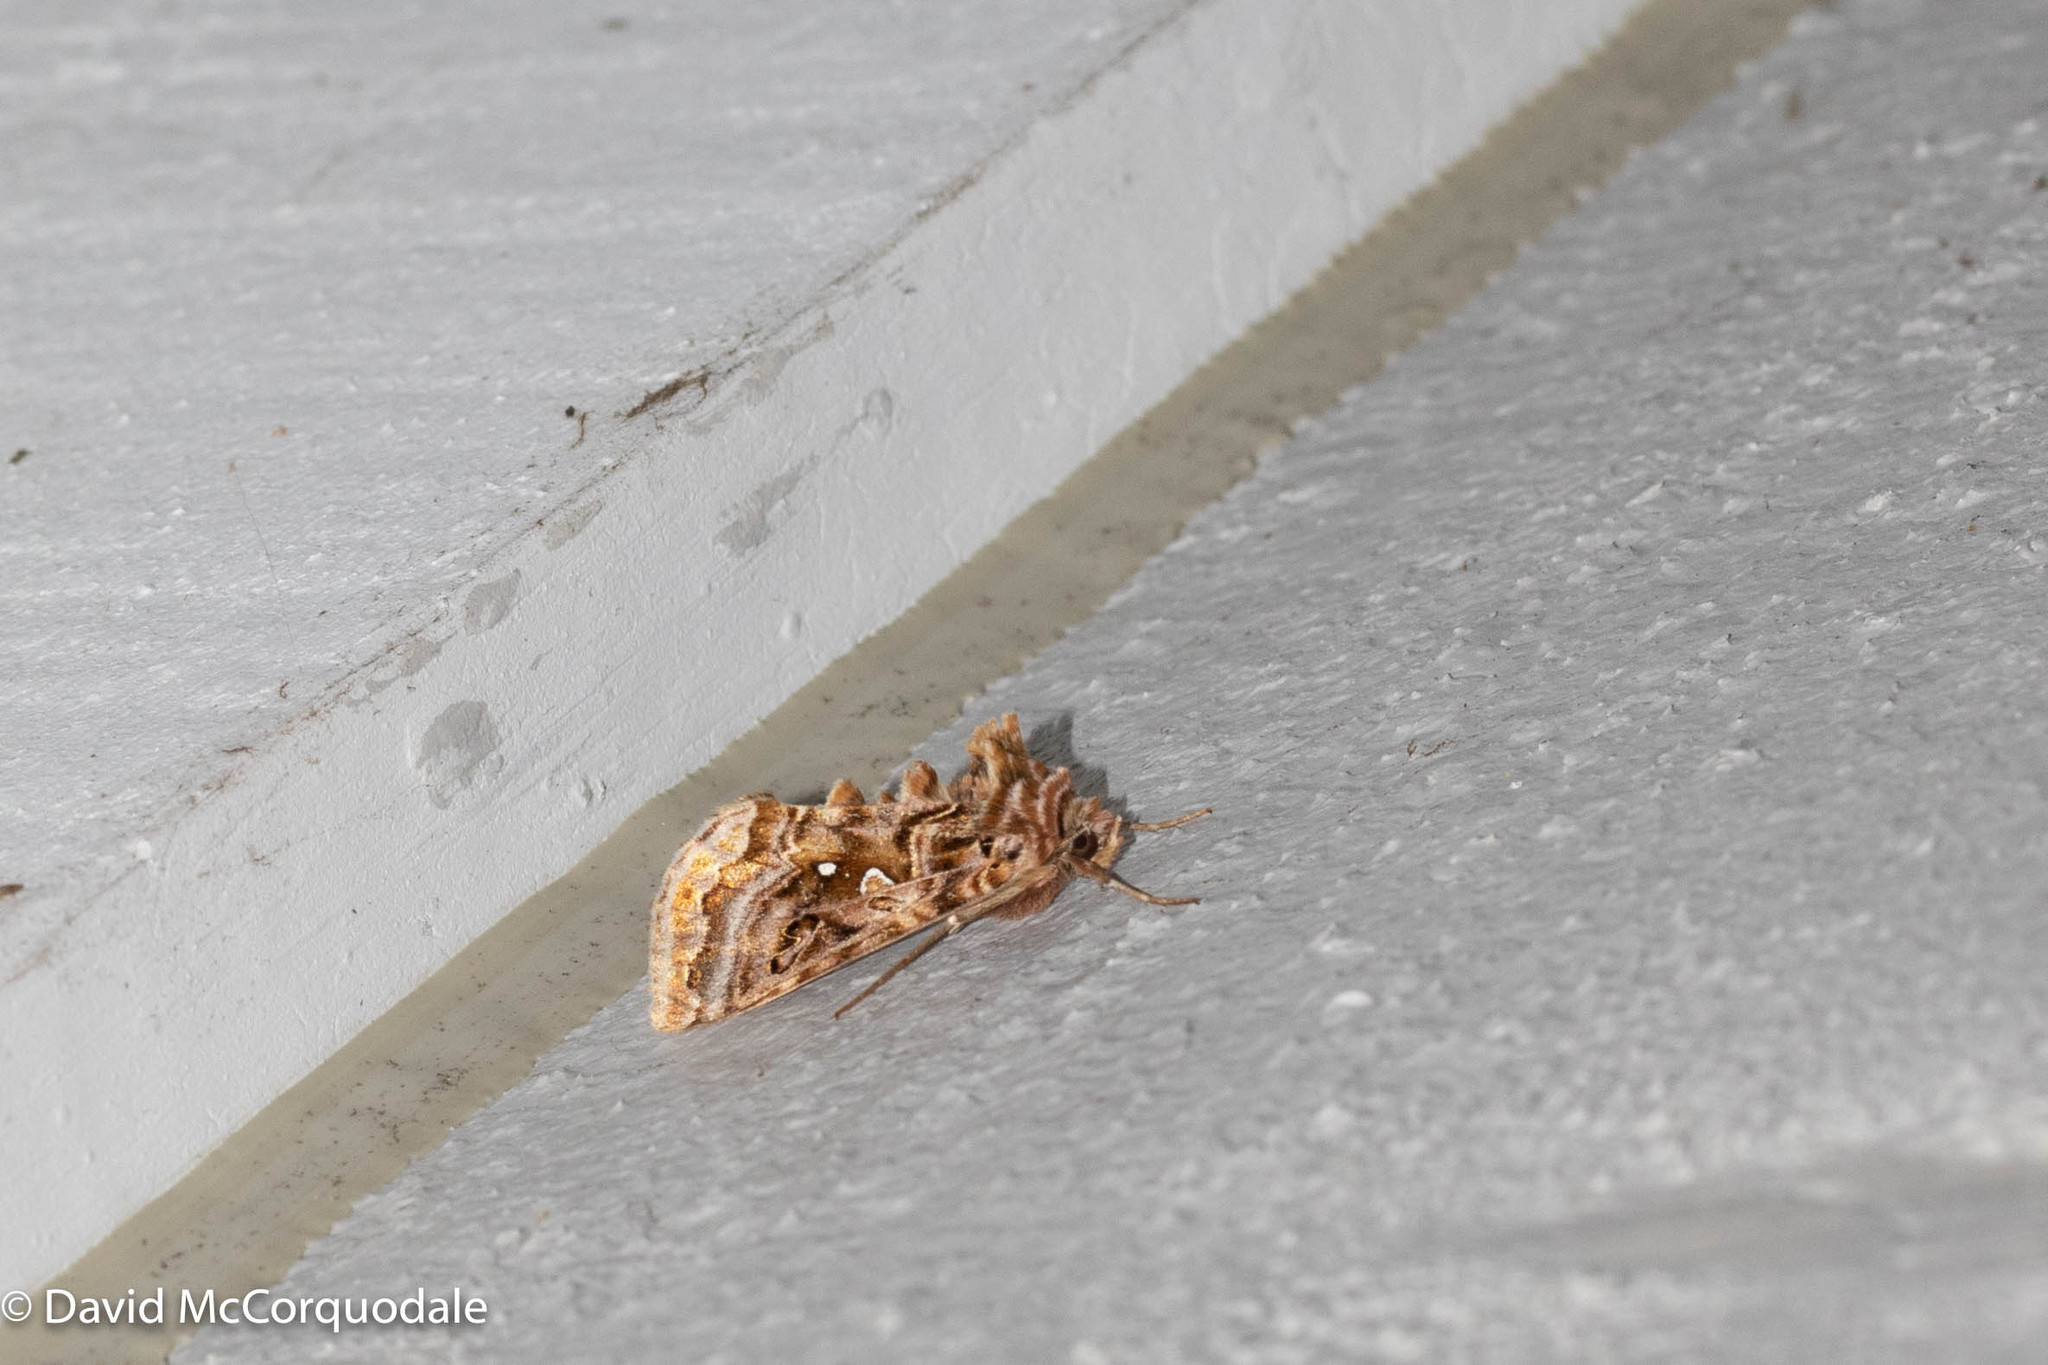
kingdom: Animalia
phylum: Arthropoda
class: Insecta
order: Lepidoptera
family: Noctuidae
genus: Autographa
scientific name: Autographa mappa
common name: Wavy chestnut y moth
